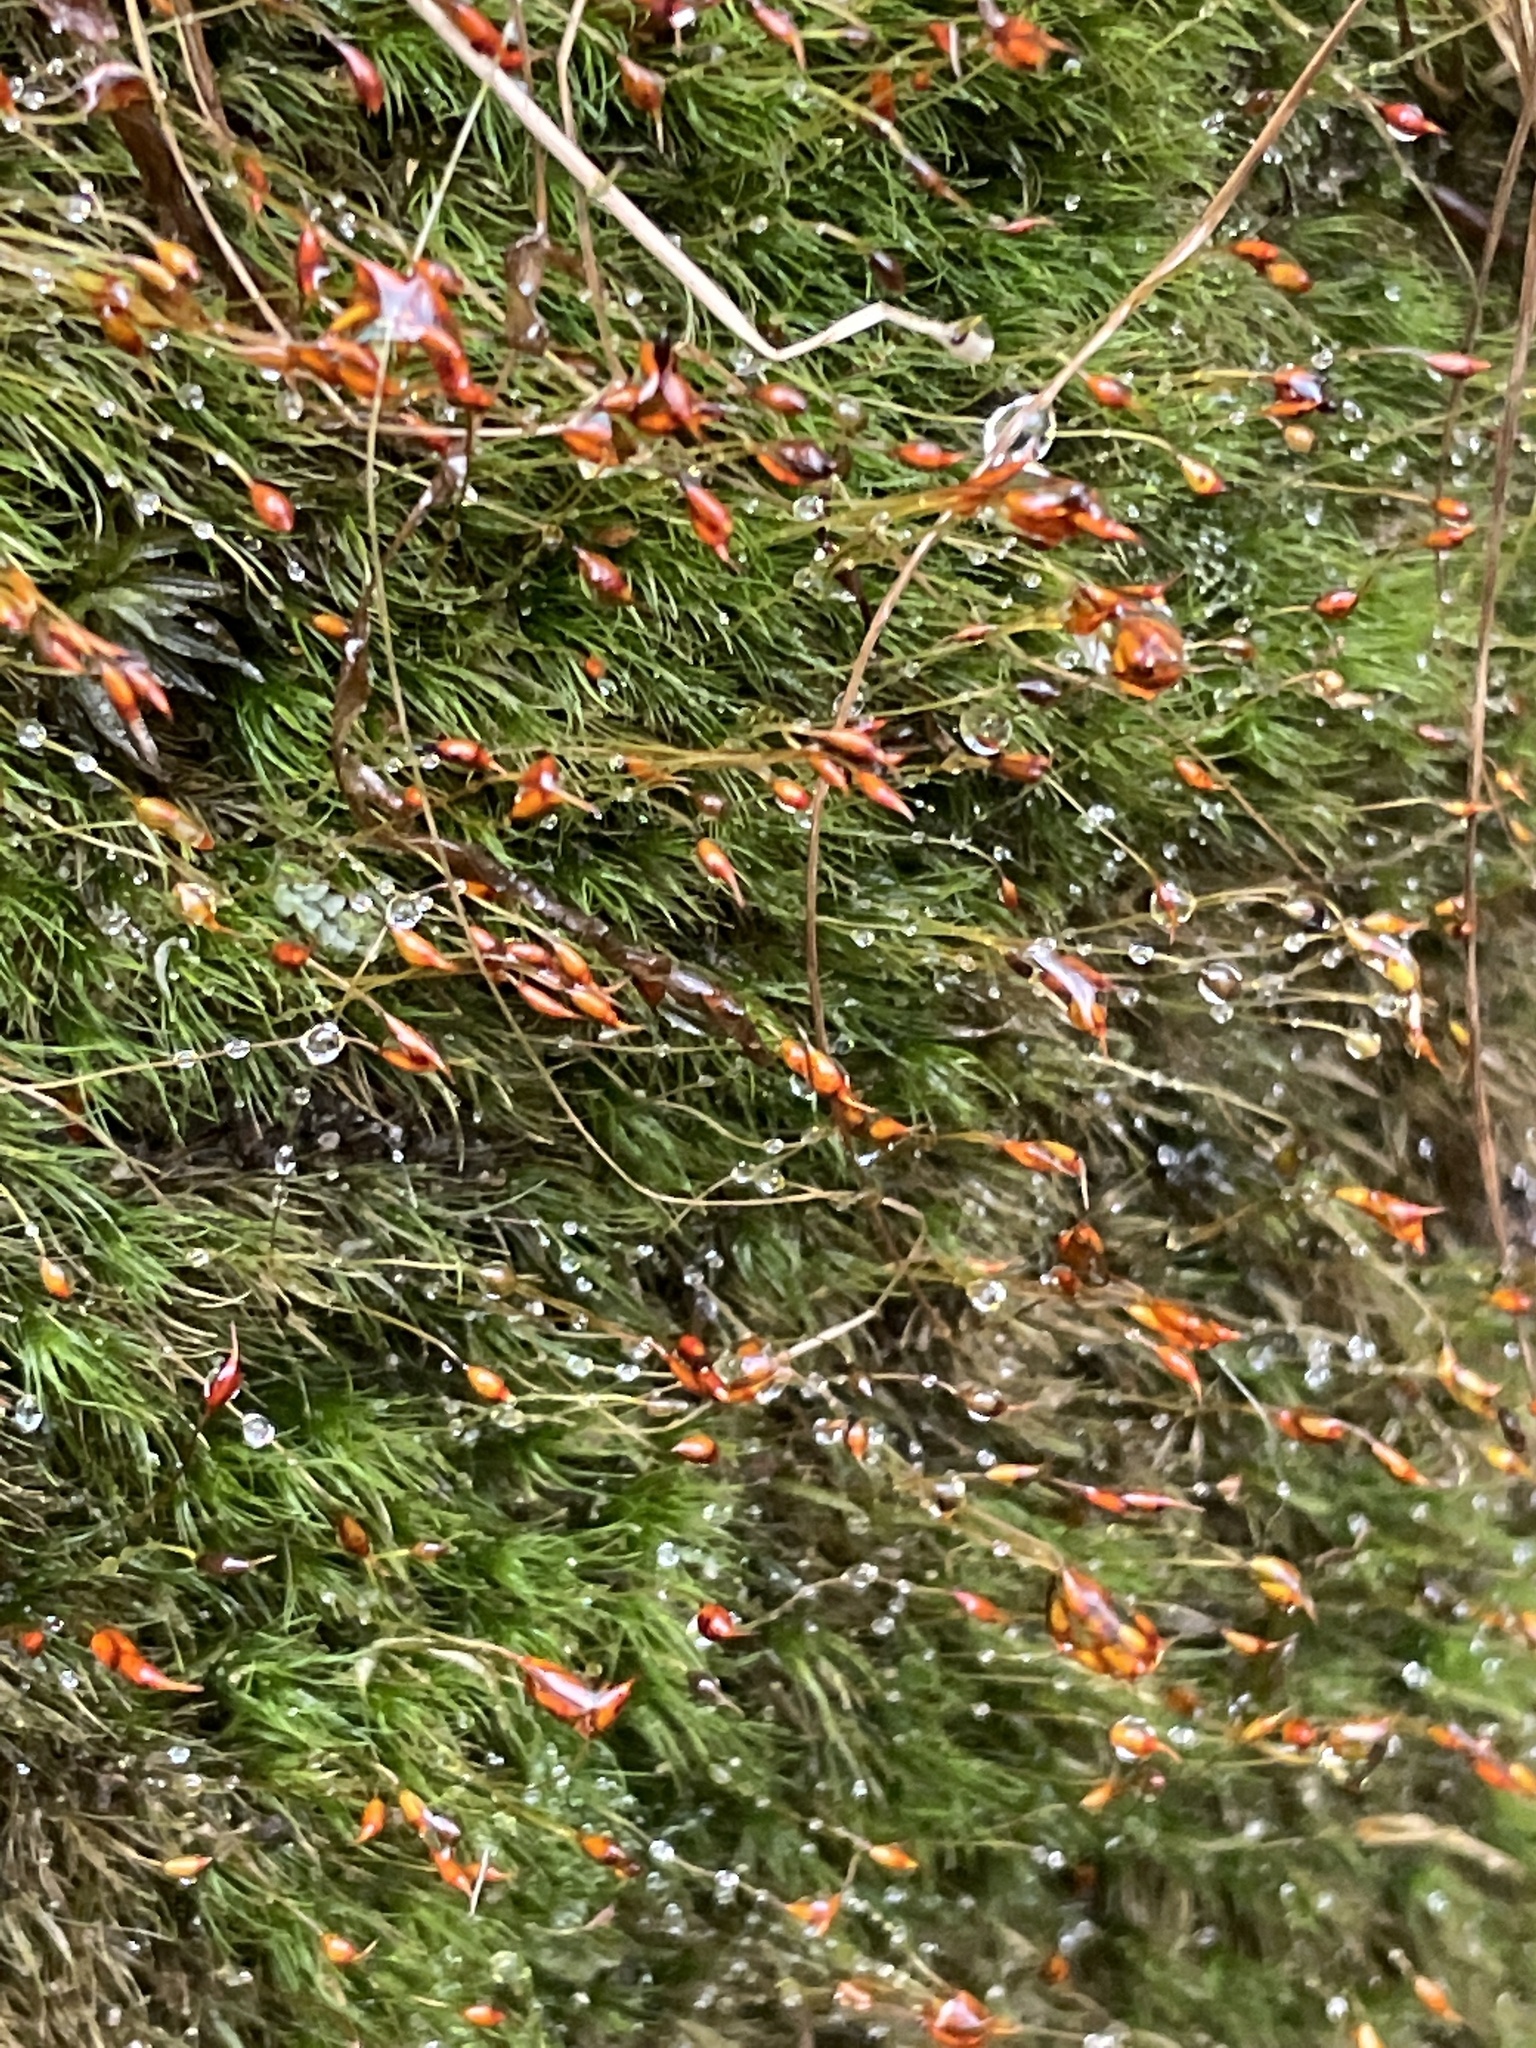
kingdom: Plantae
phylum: Bryophyta
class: Bryopsida
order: Dicranales
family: Dicranellaceae
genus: Dicranella
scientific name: Dicranella heteromalla
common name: Silky forklet moss
